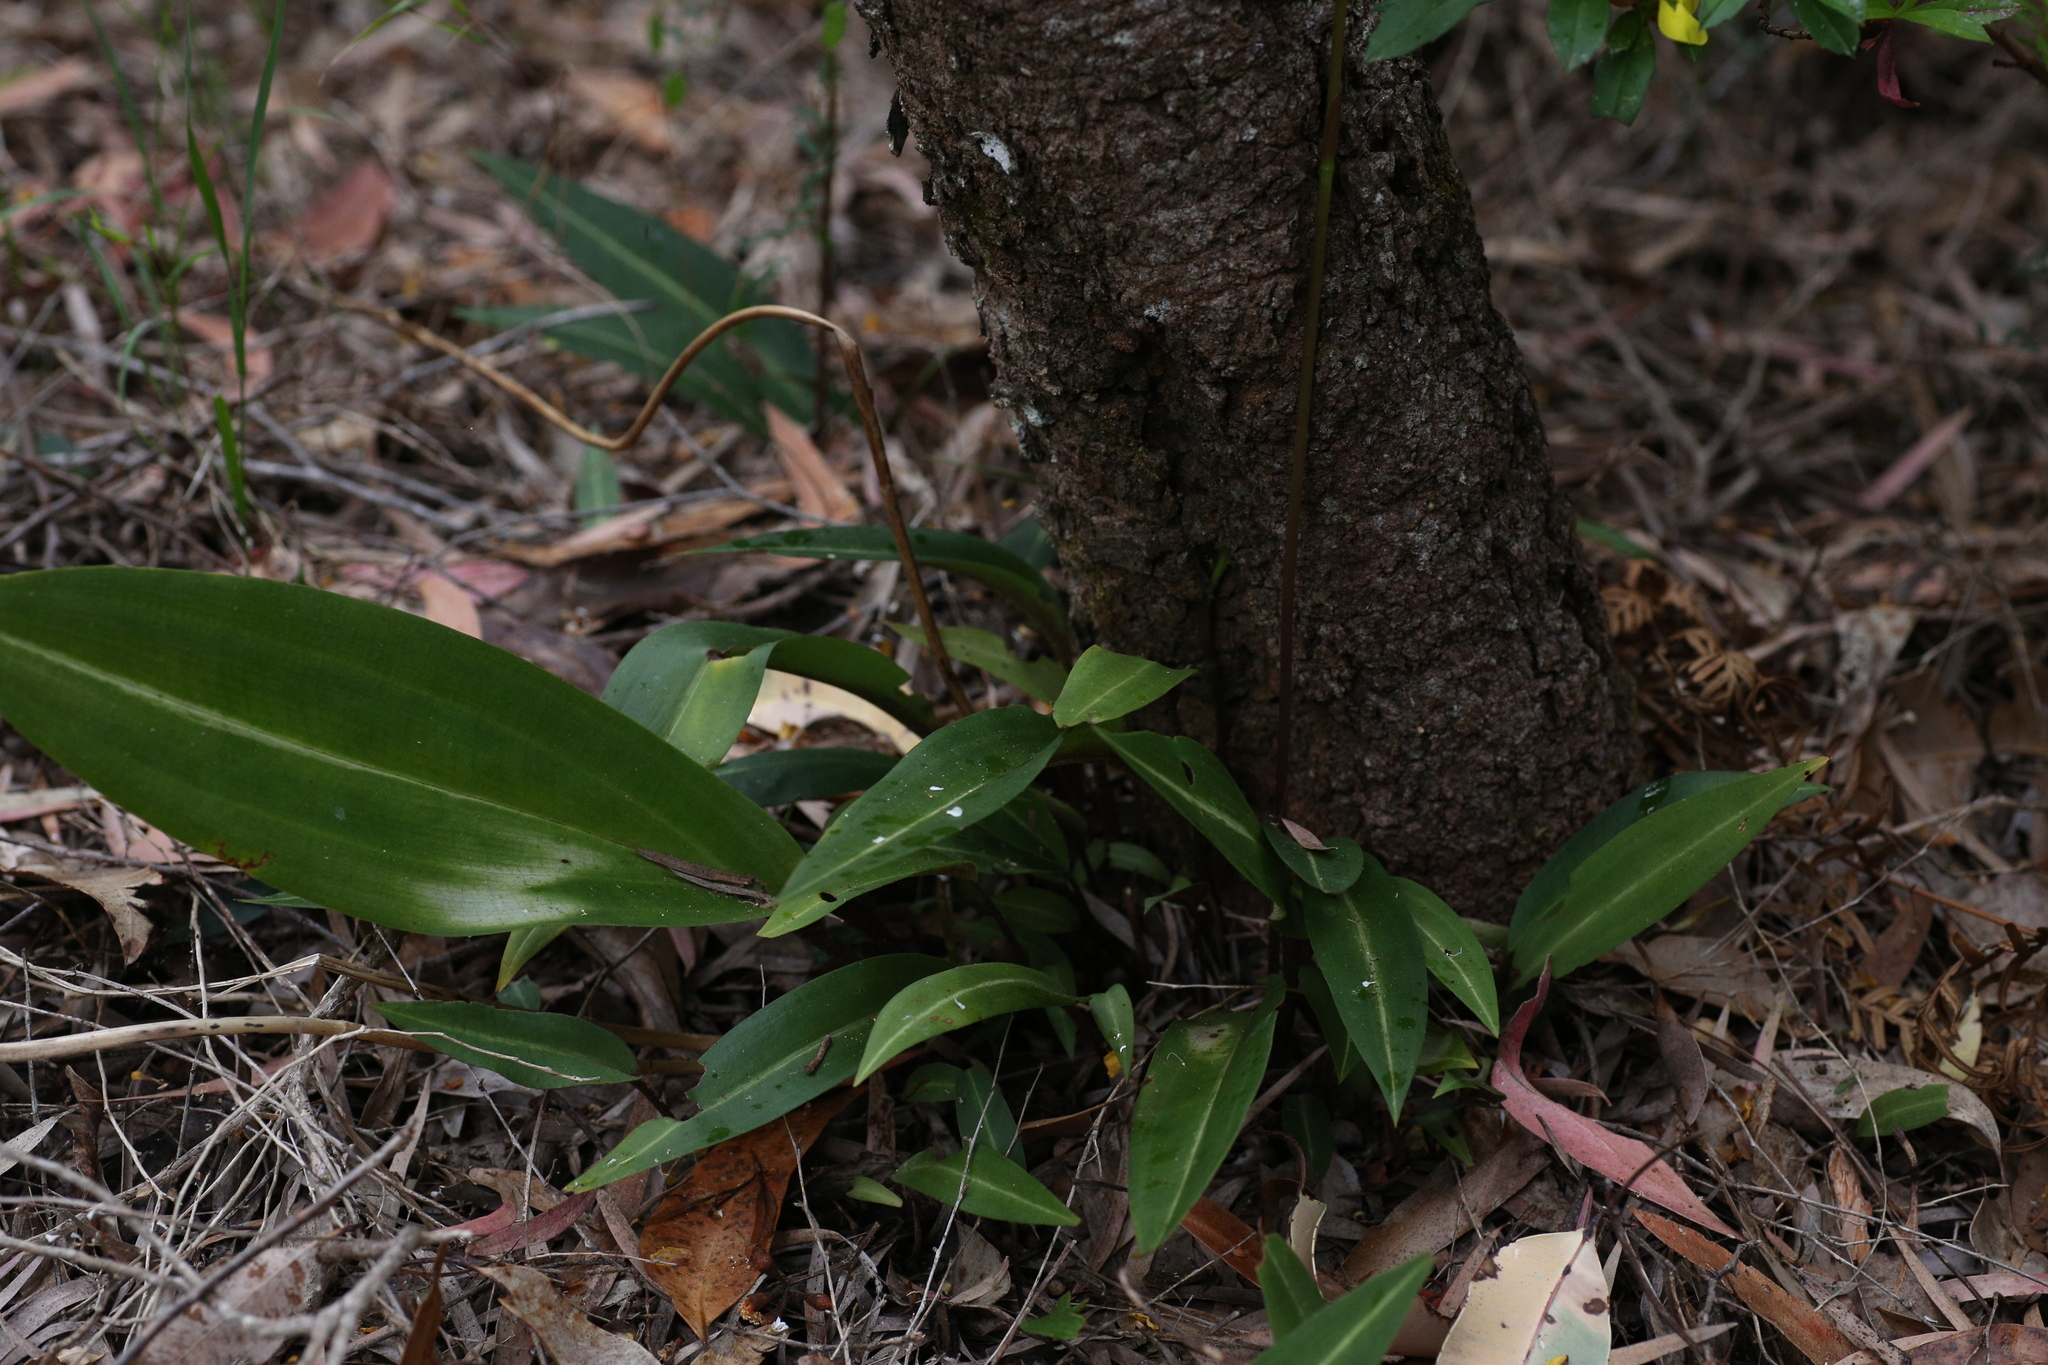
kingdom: Plantae
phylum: Tracheophyta
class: Liliopsida
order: Asparagales
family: Orchidaceae
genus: Cryptostylis
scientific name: Cryptostylis ovata
